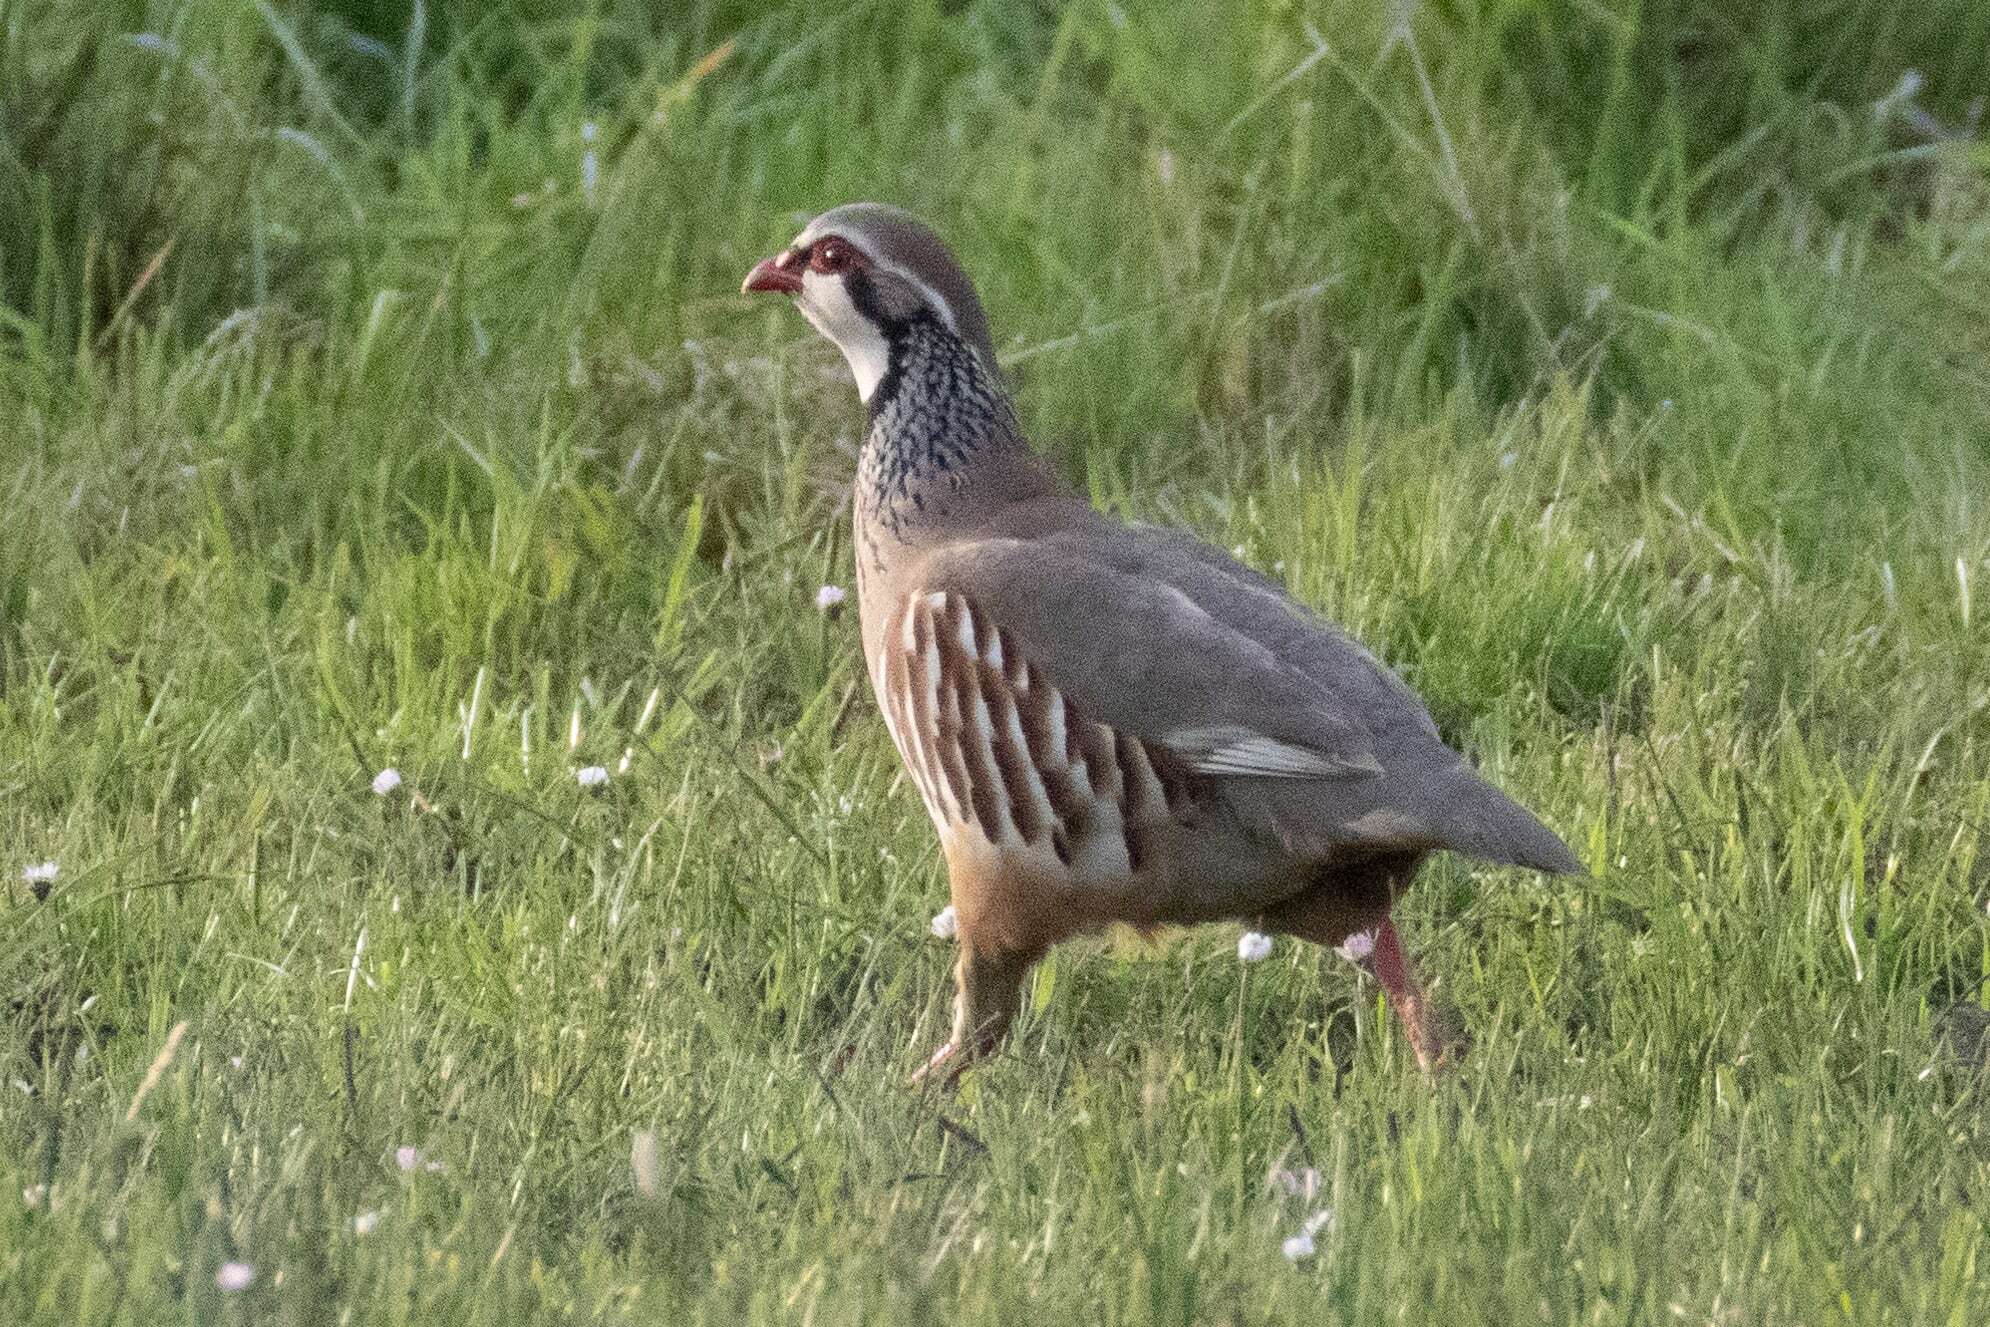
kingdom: Animalia
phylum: Chordata
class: Aves
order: Galliformes
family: Phasianidae
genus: Alectoris
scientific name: Alectoris rufa
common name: Red-legged partridge
